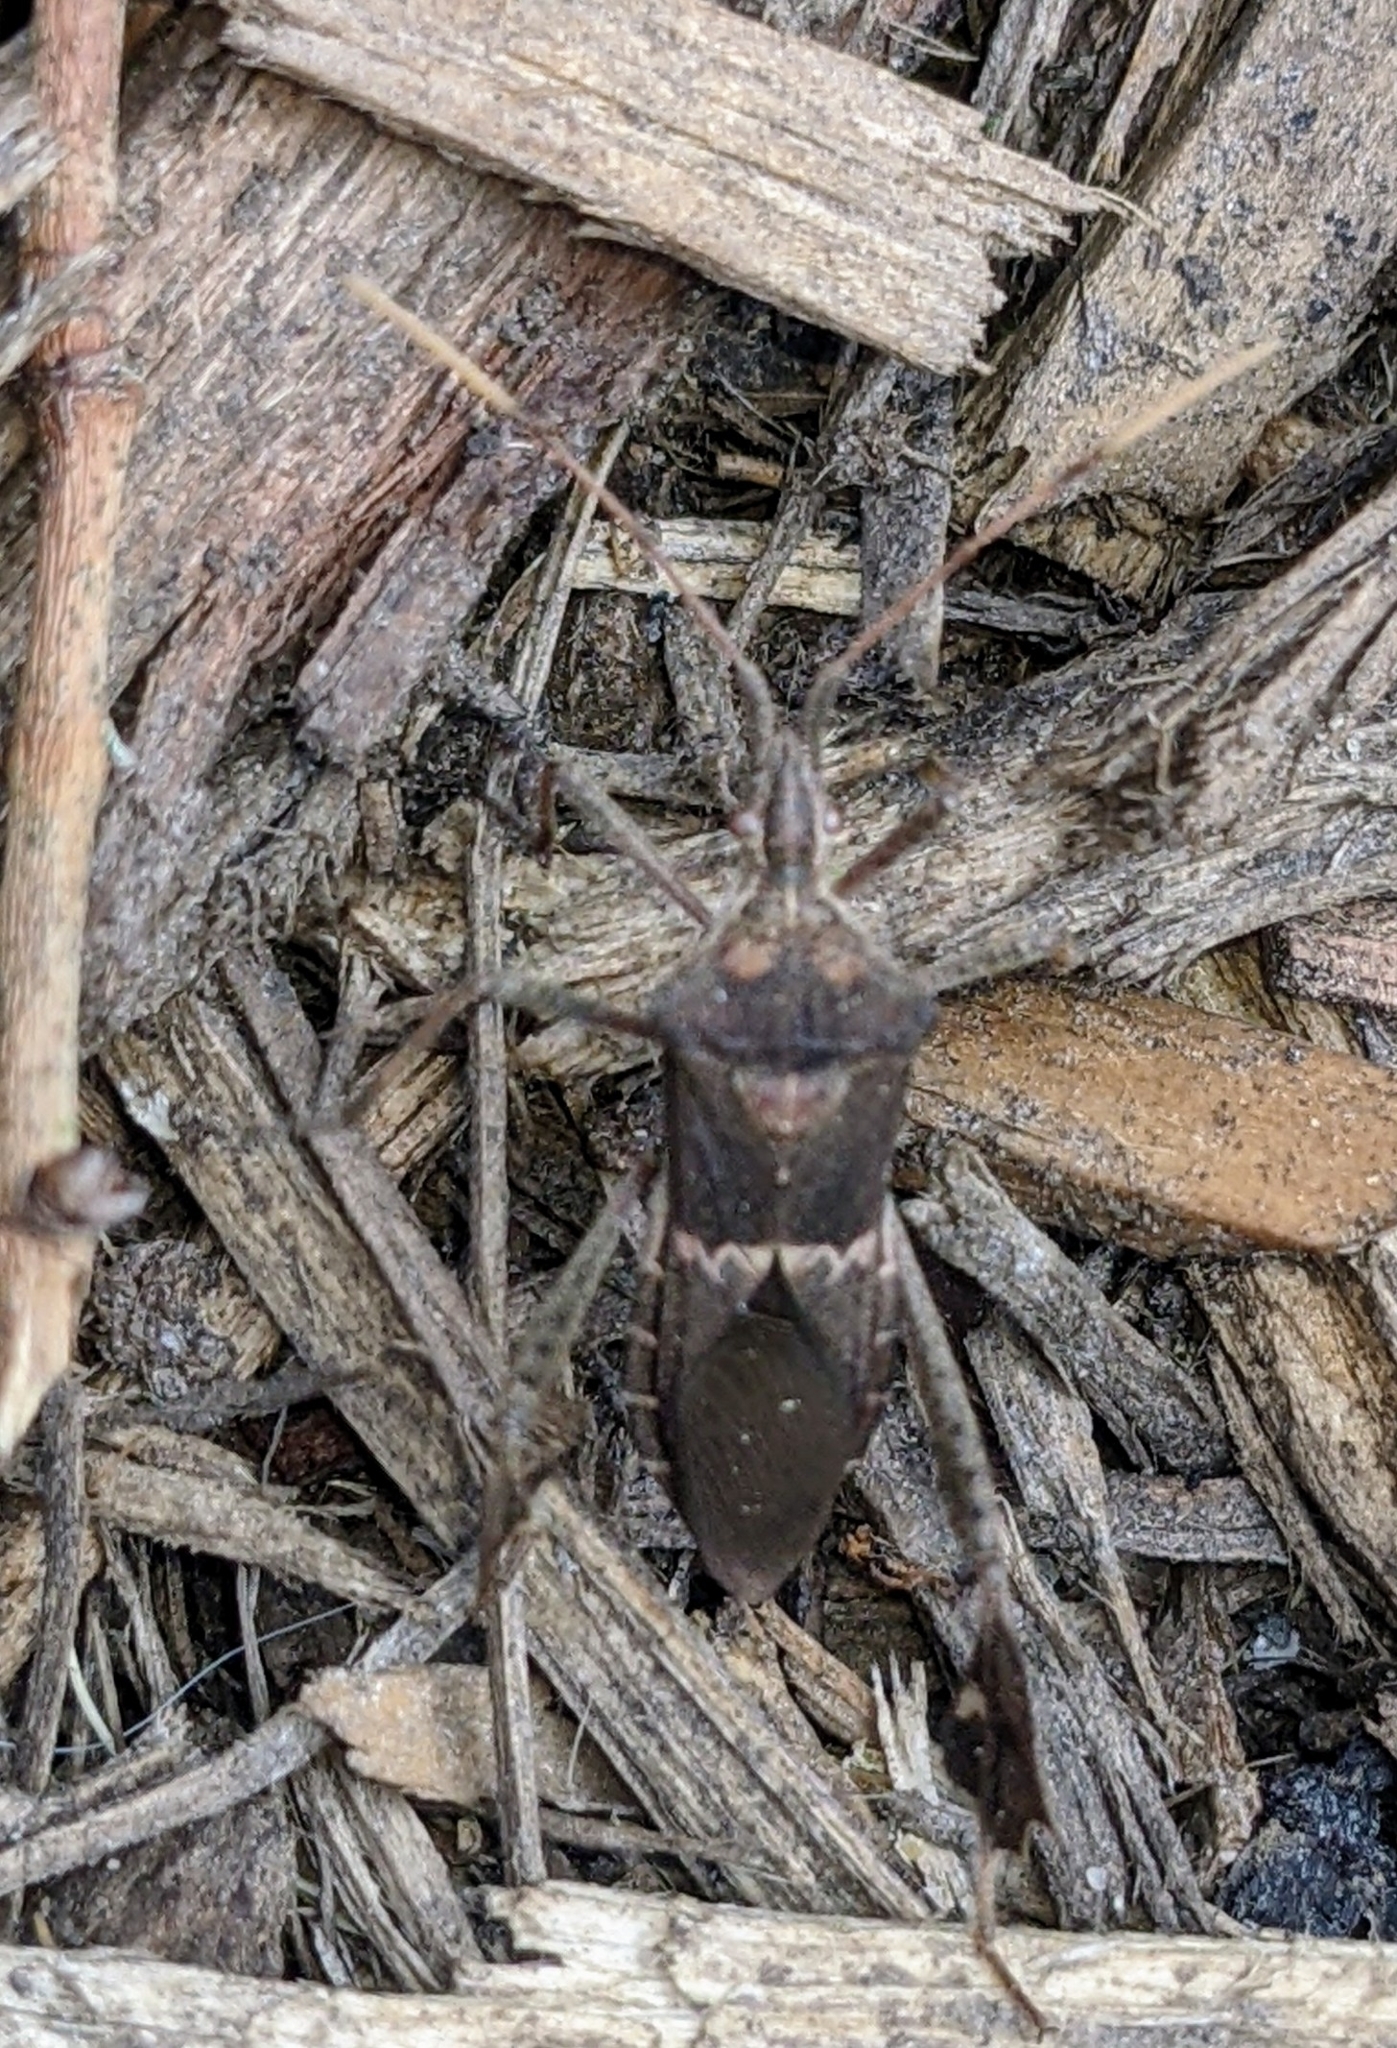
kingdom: Animalia
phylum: Arthropoda
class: Insecta
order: Hemiptera
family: Coreidae
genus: Leptoglossus
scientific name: Leptoglossus zonatus
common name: Large-legged bug
